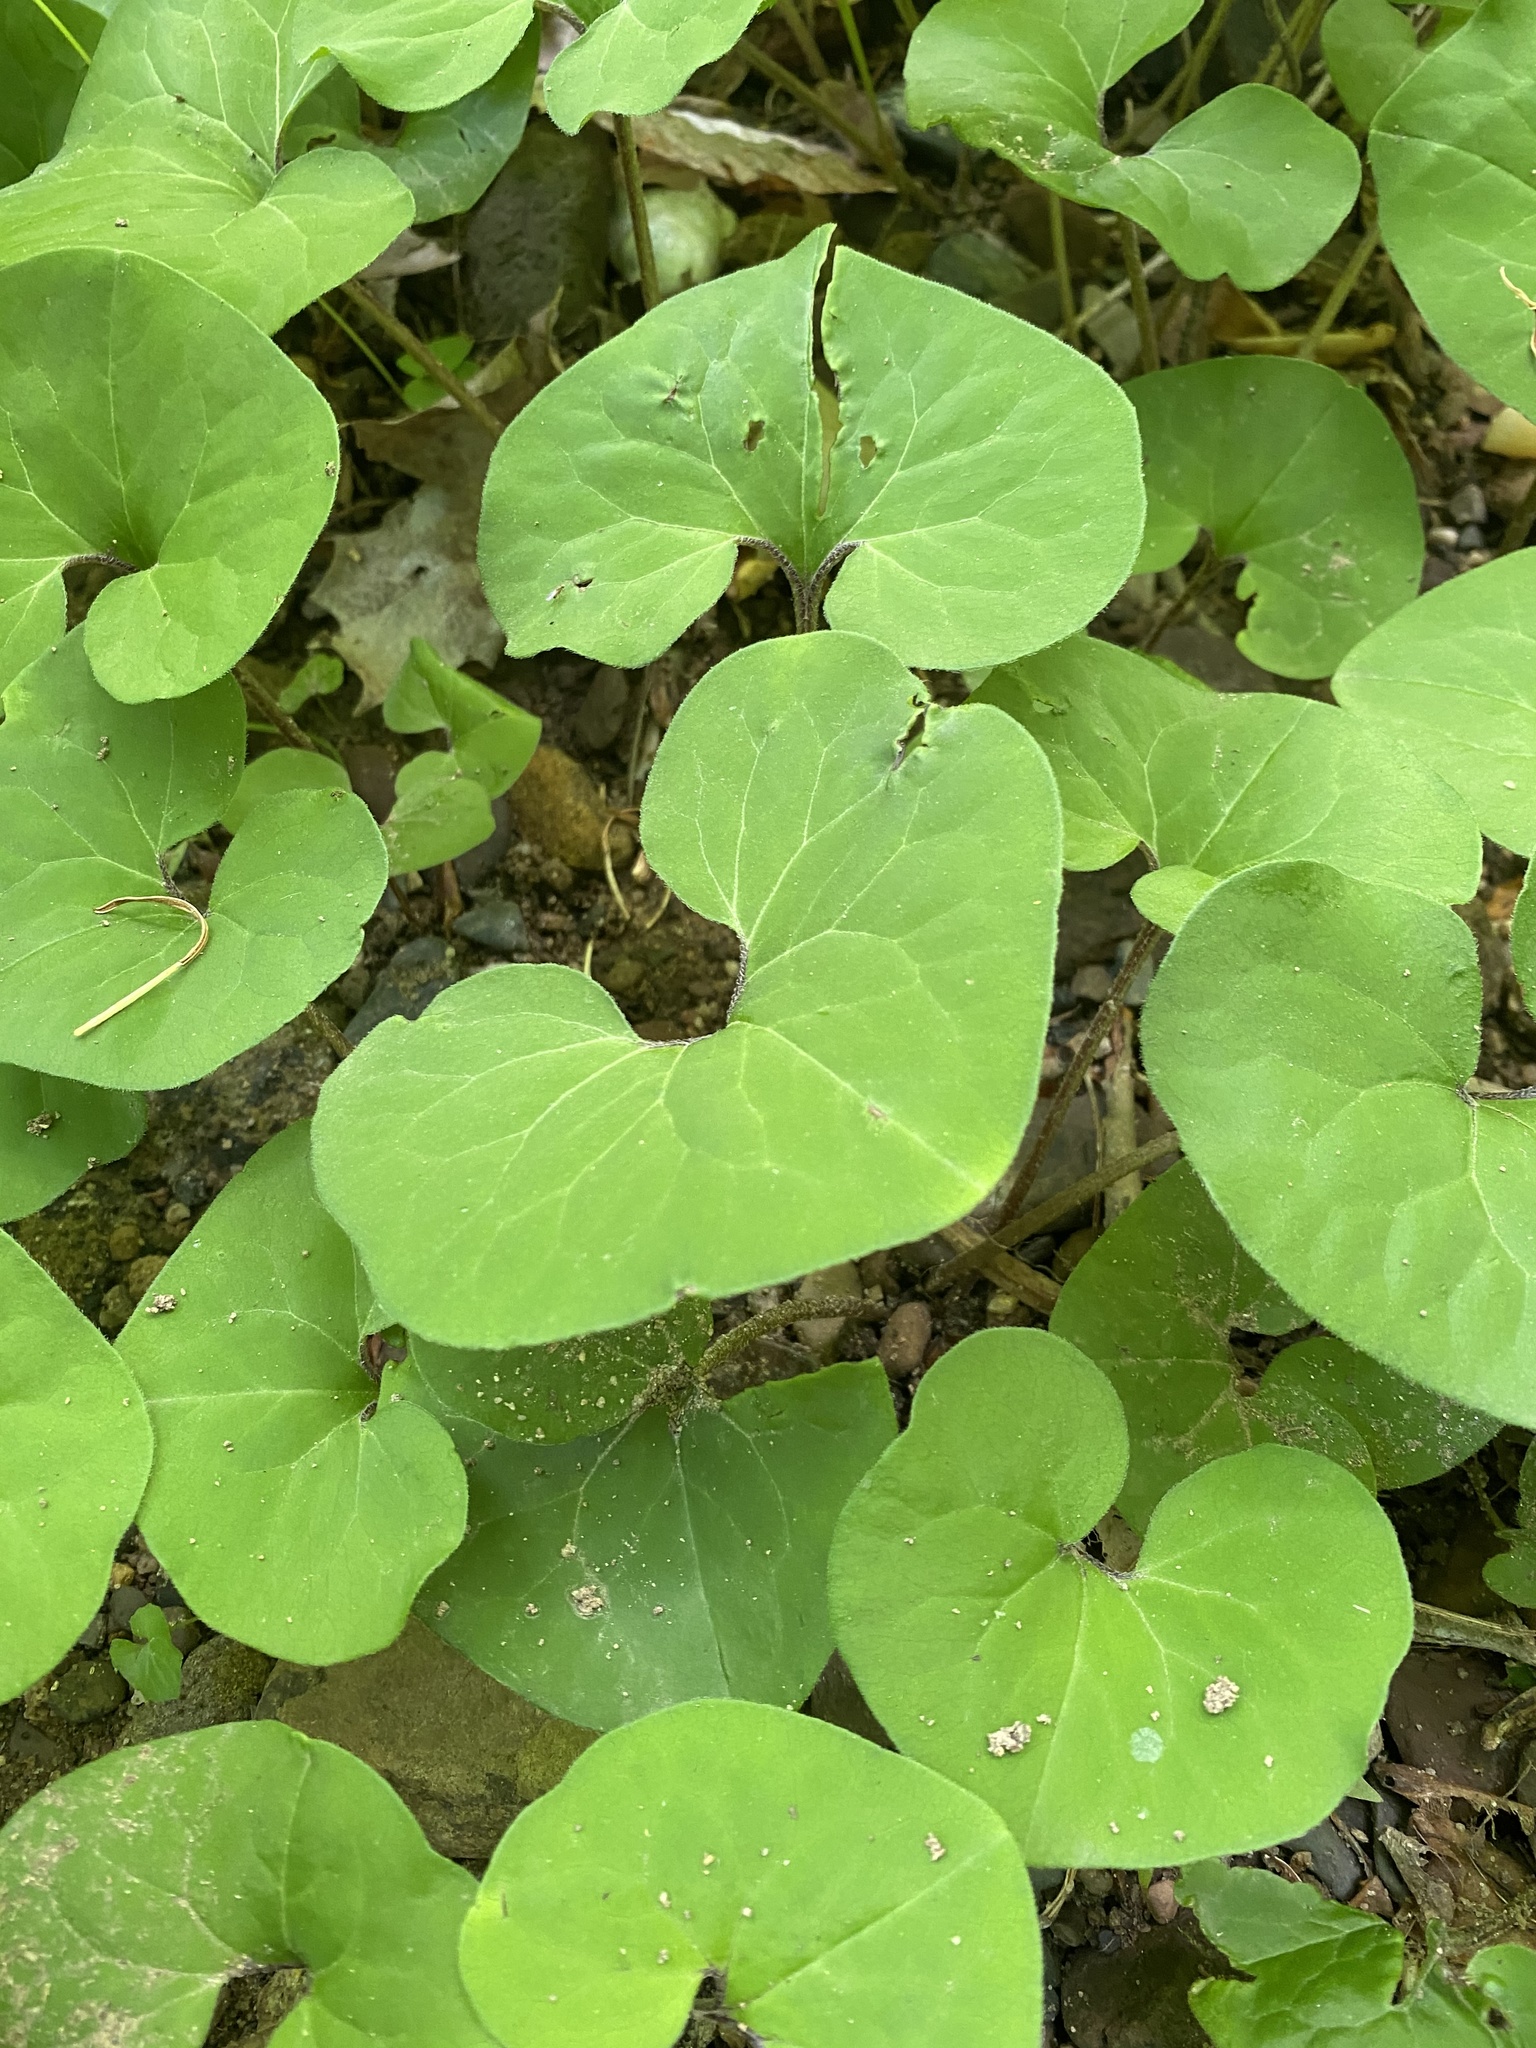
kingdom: Plantae
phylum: Tracheophyta
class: Magnoliopsida
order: Piperales
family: Aristolochiaceae
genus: Asarum
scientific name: Asarum canadense
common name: Wild ginger
